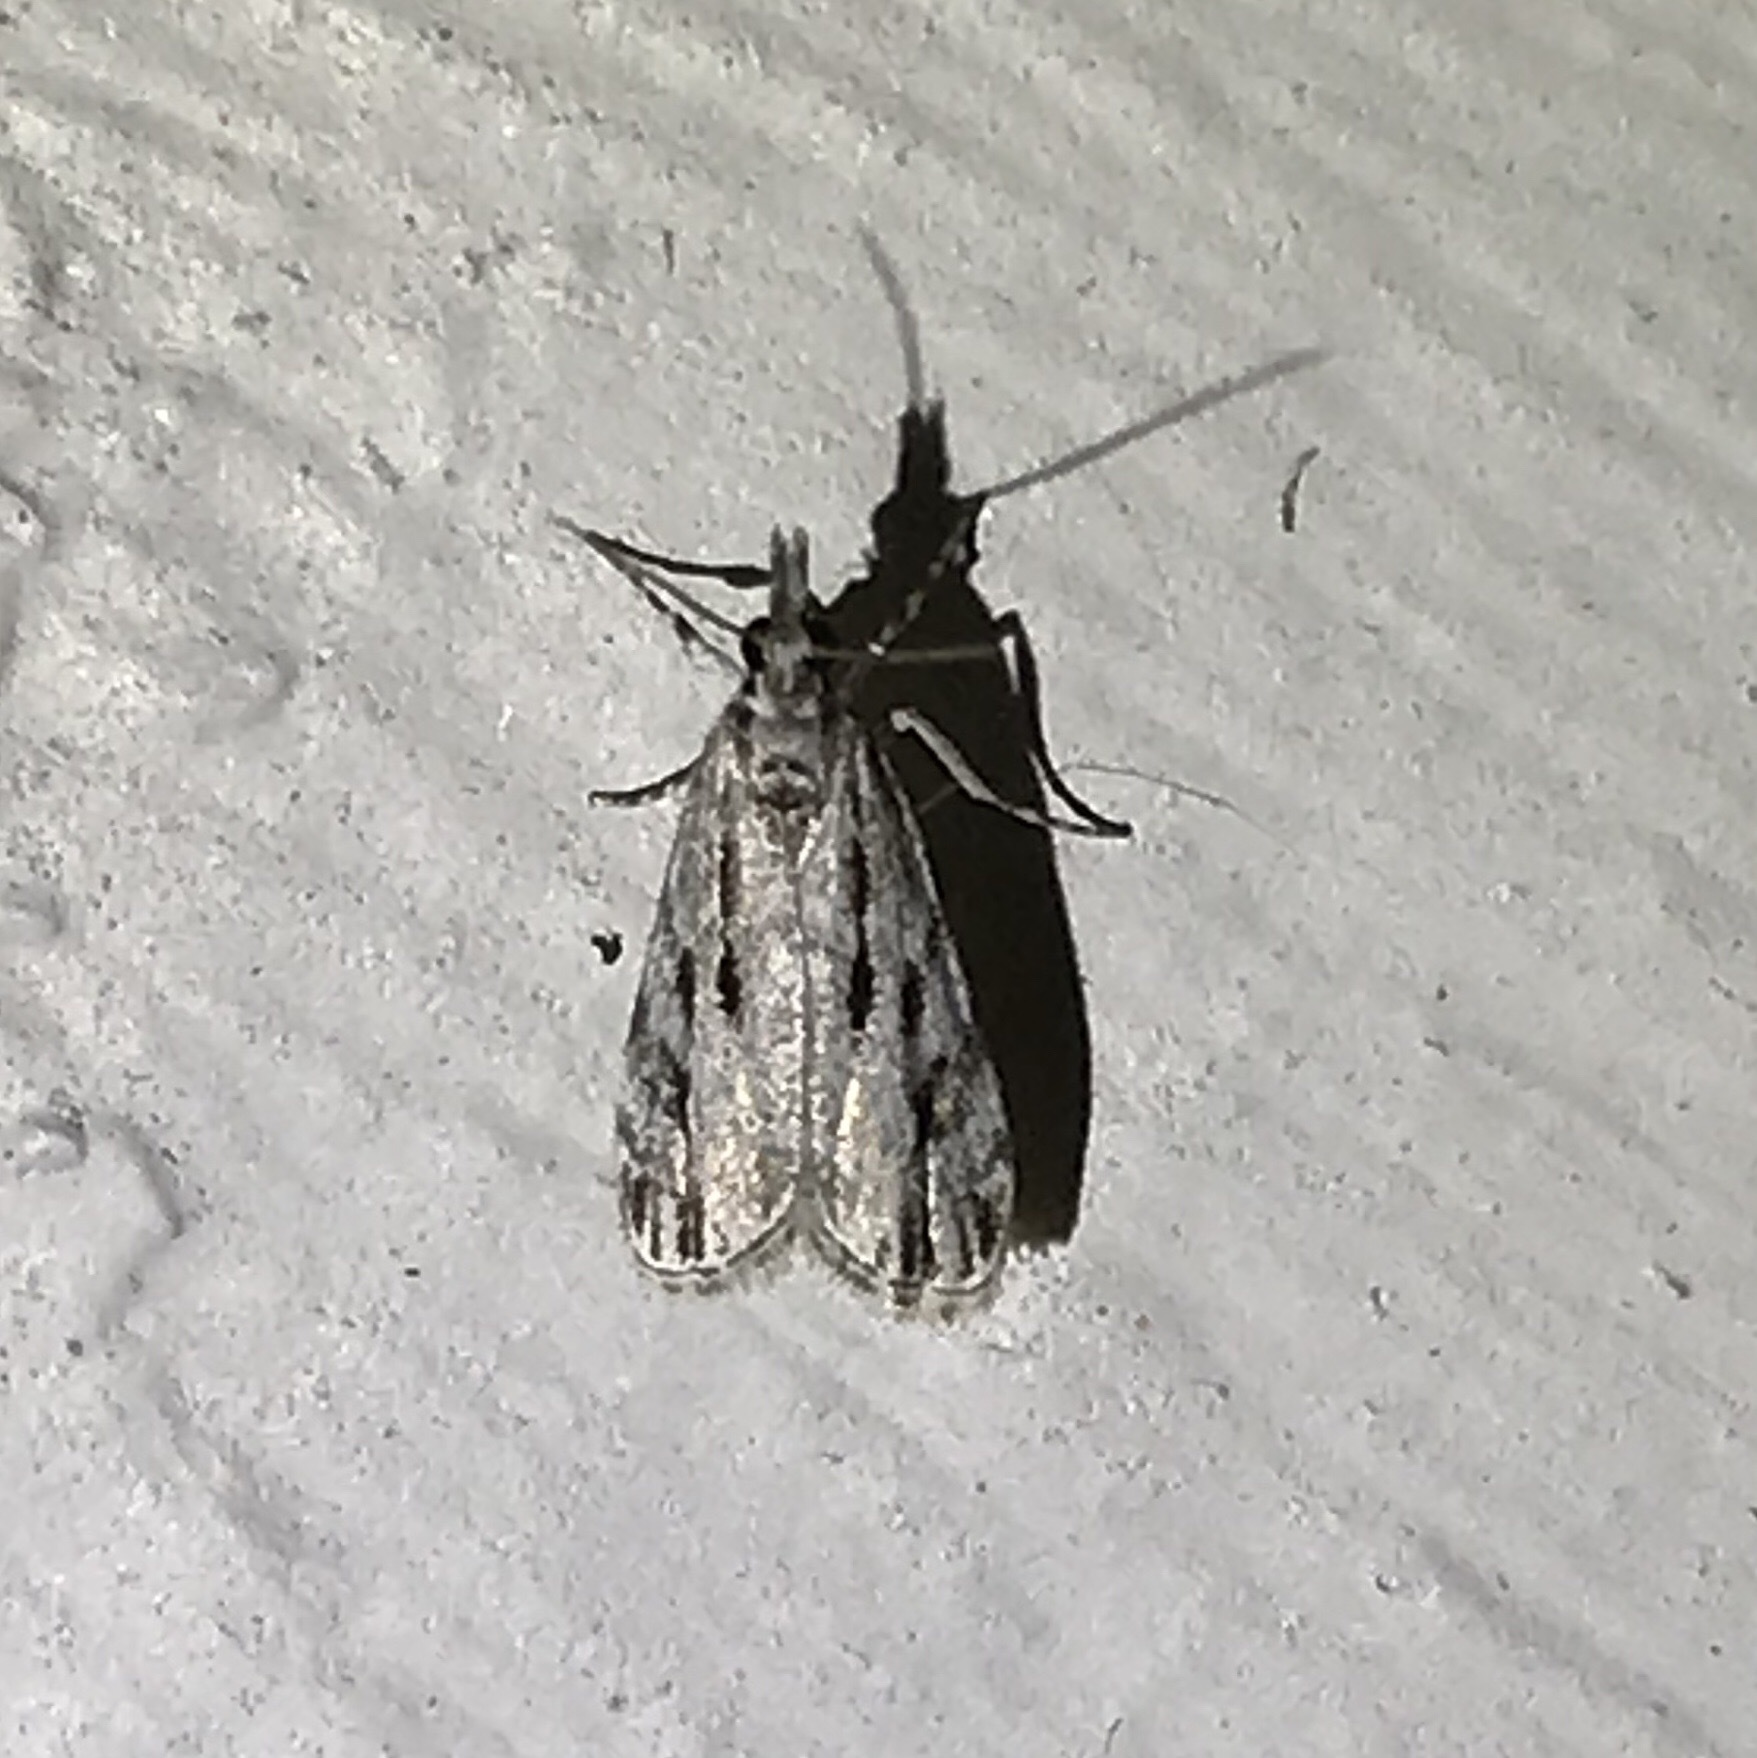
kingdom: Animalia
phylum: Arthropoda
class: Insecta
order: Lepidoptera
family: Crambidae
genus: Eudonia
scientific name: Eudonia strigalis
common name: Striped eudonia moth
